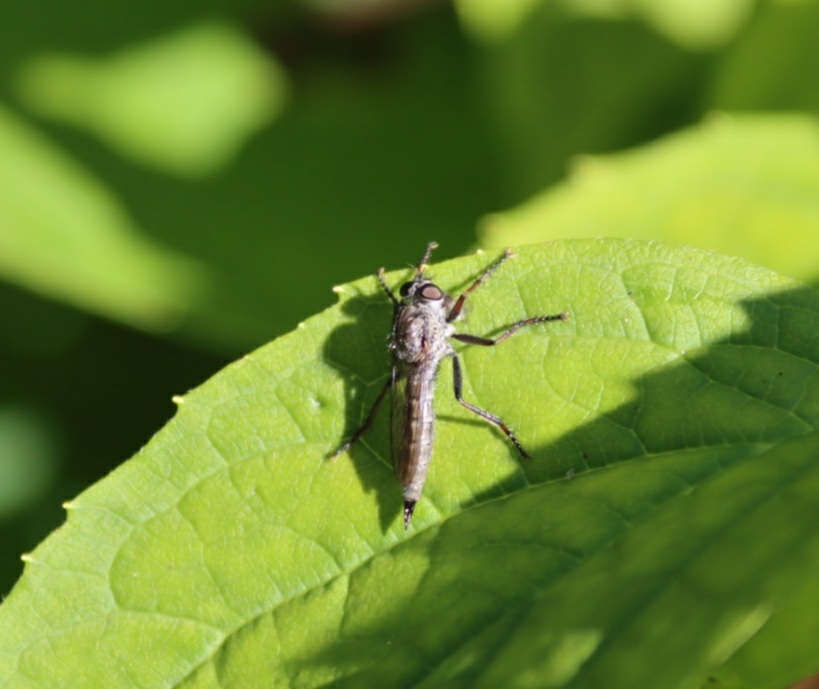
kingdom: Animalia
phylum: Arthropoda
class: Insecta
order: Diptera
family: Asilidae
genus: Machimus
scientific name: Machimus atricapillus
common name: Kite-tailed robberfly
